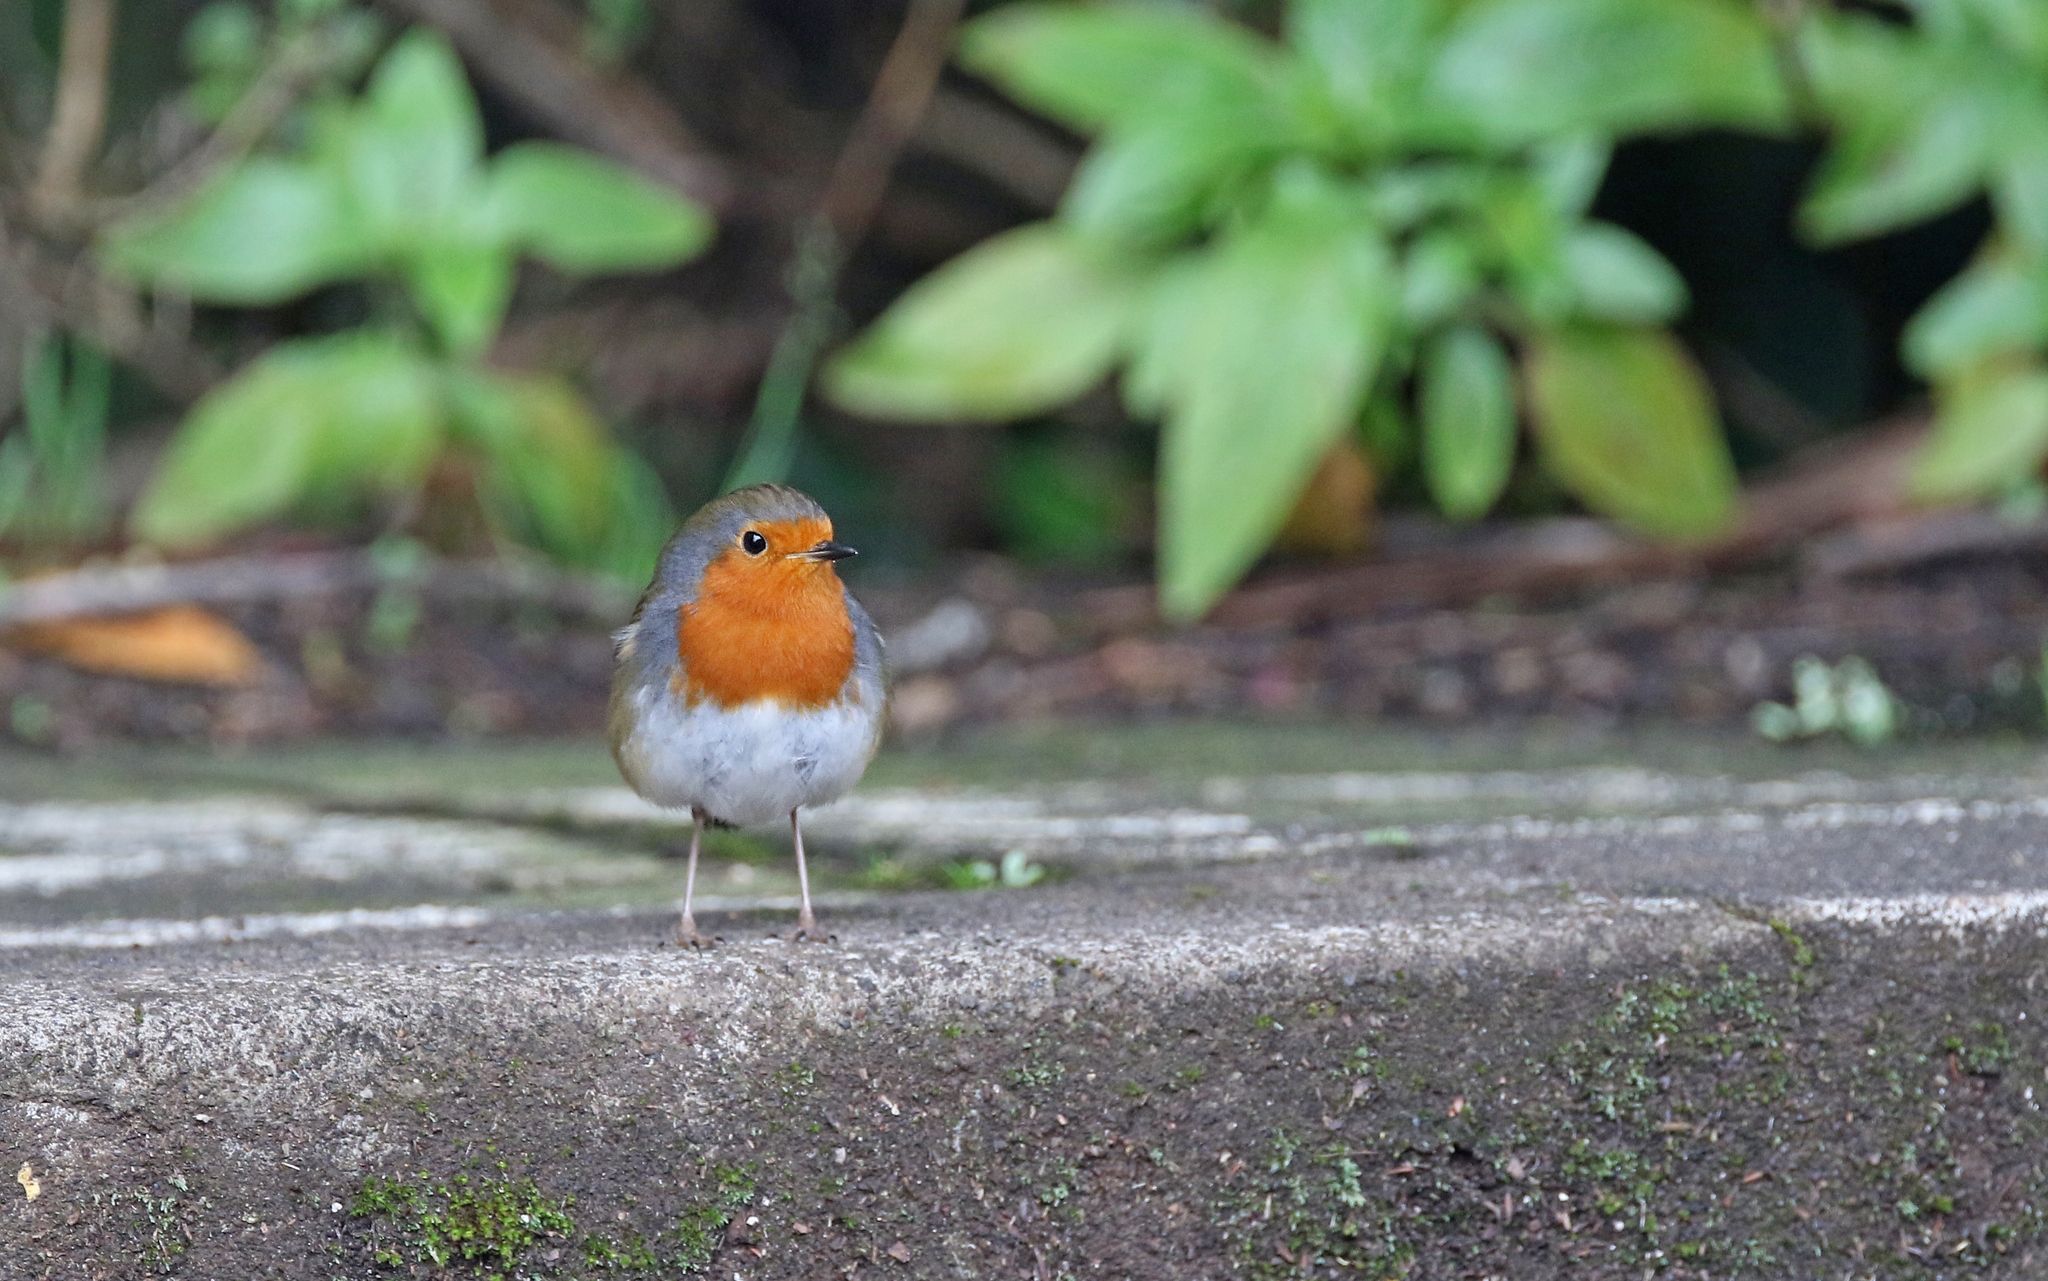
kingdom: Animalia
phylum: Chordata
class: Aves
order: Passeriformes
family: Muscicapidae
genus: Erithacus
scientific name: Erithacus rubecula
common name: European robin
